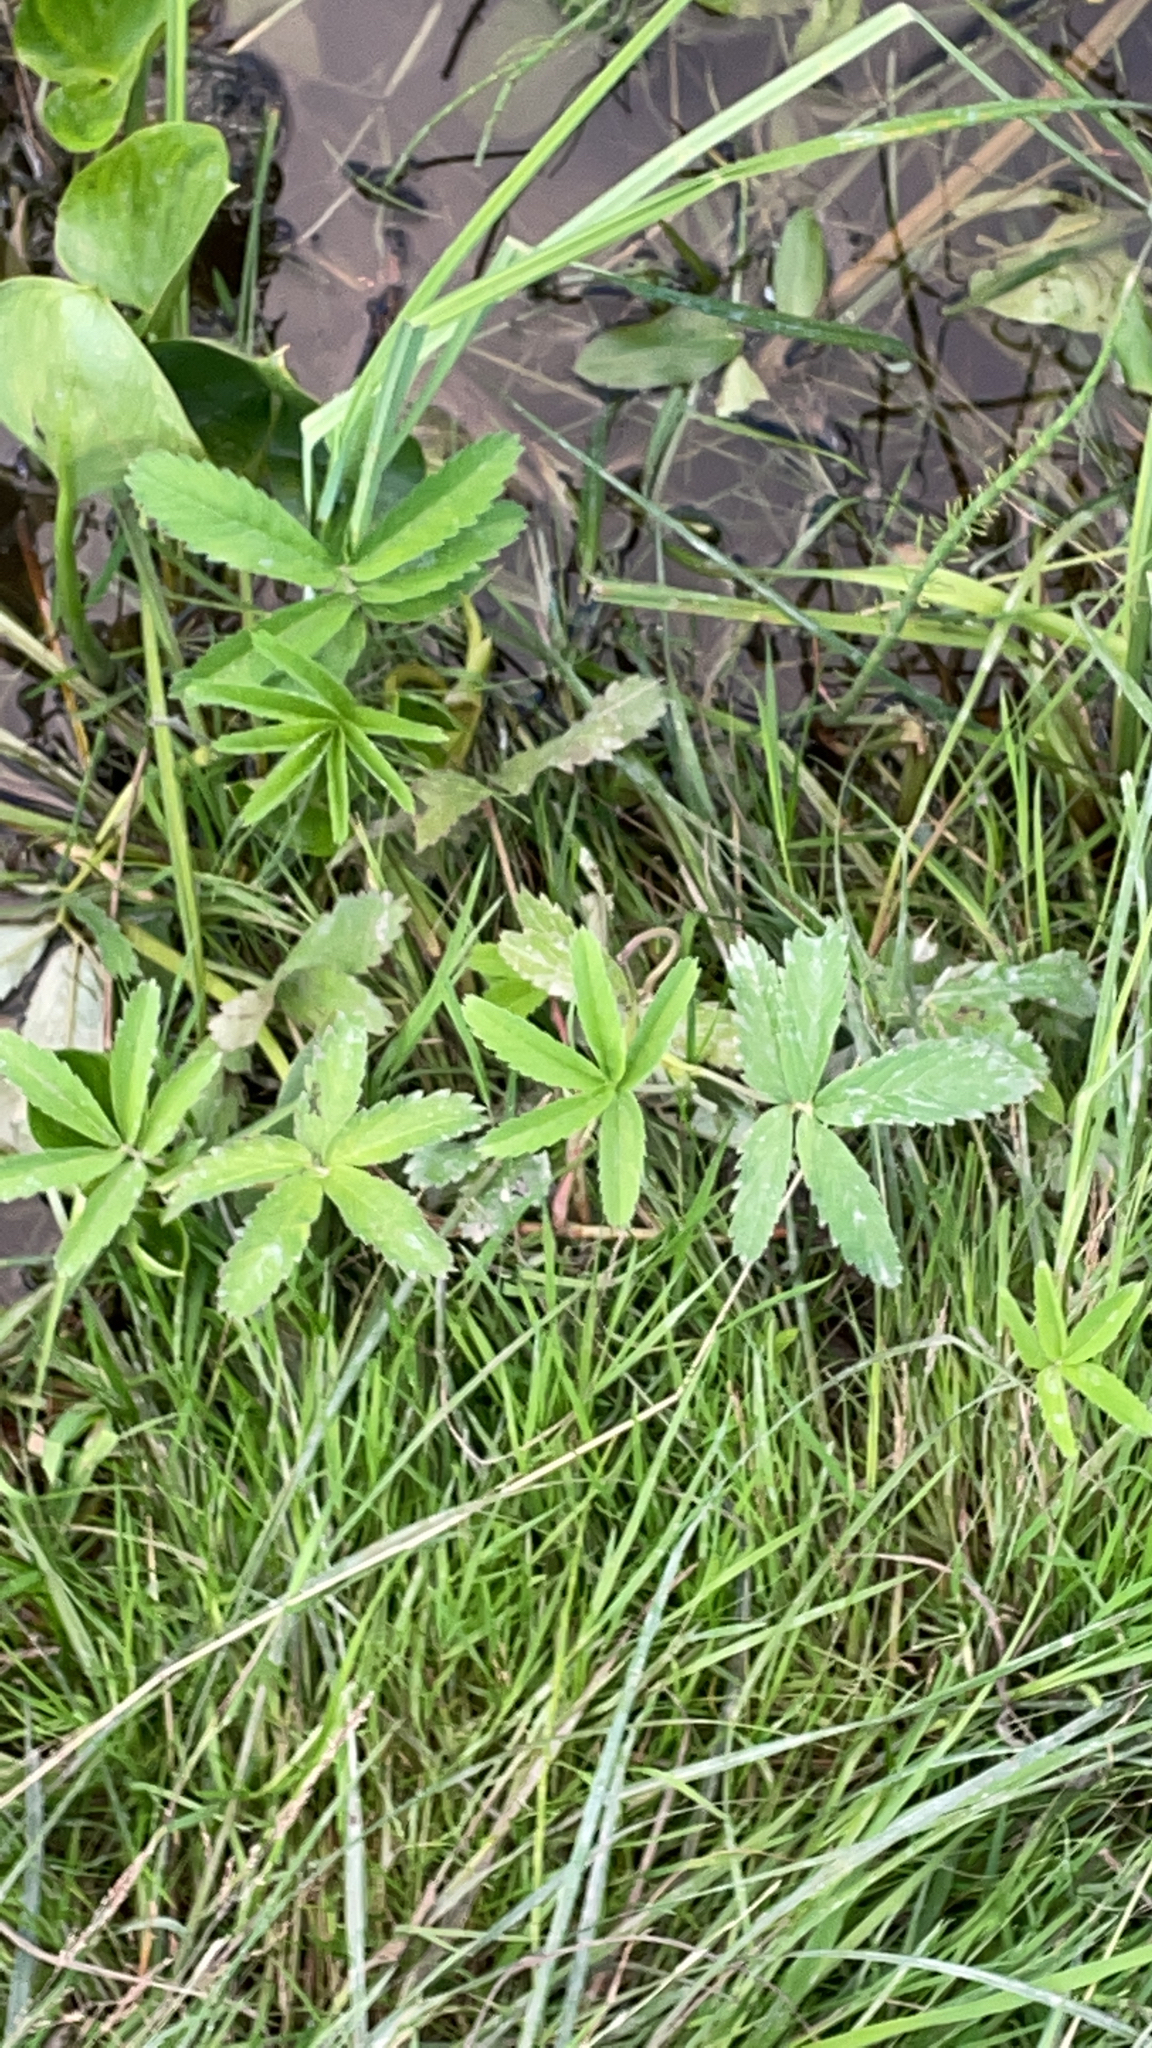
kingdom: Plantae
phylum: Tracheophyta
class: Magnoliopsida
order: Rosales
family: Rosaceae
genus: Comarum
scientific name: Comarum palustre
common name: Marsh cinquefoil
